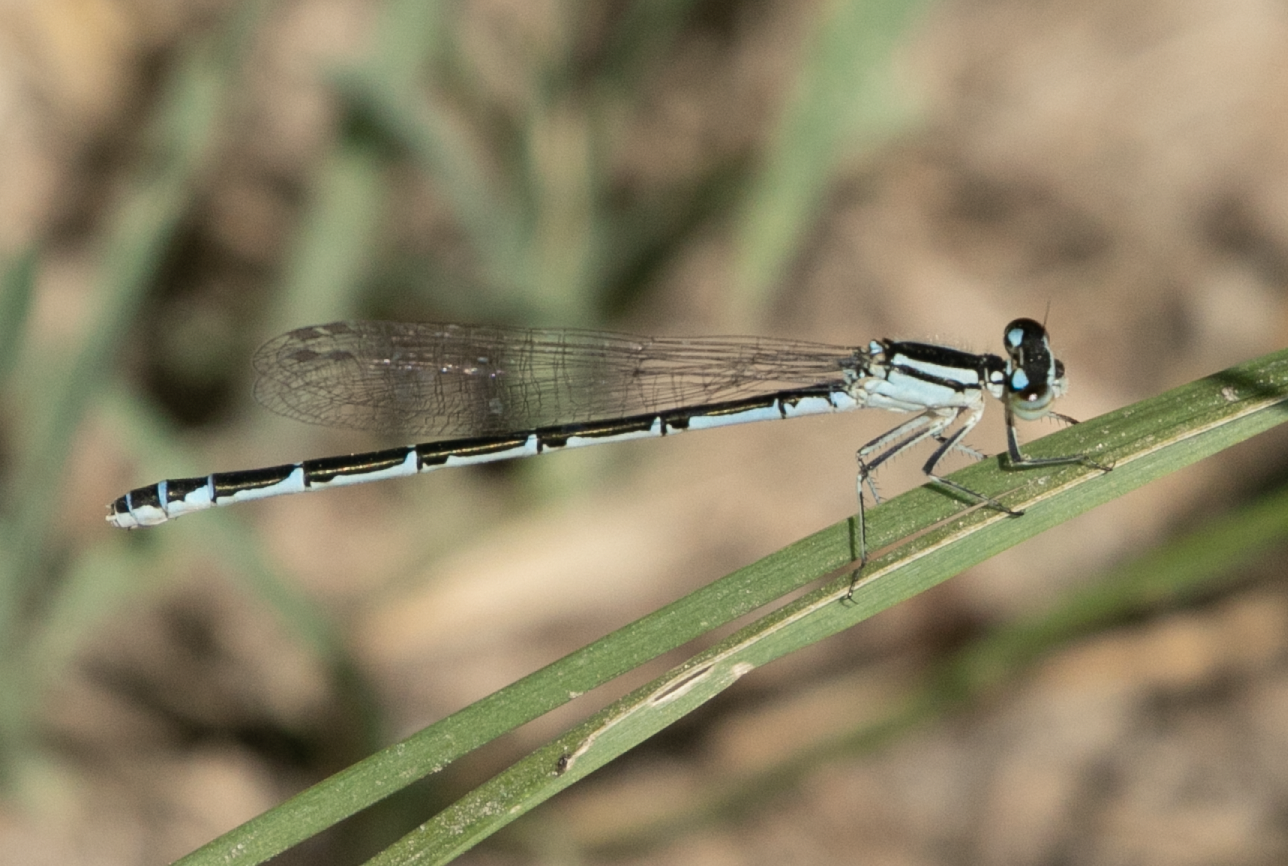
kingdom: Animalia
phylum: Arthropoda
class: Insecta
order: Odonata
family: Coenagrionidae
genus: Enallagma
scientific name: Enallagma cyathigerum
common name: Common blue damselfly
